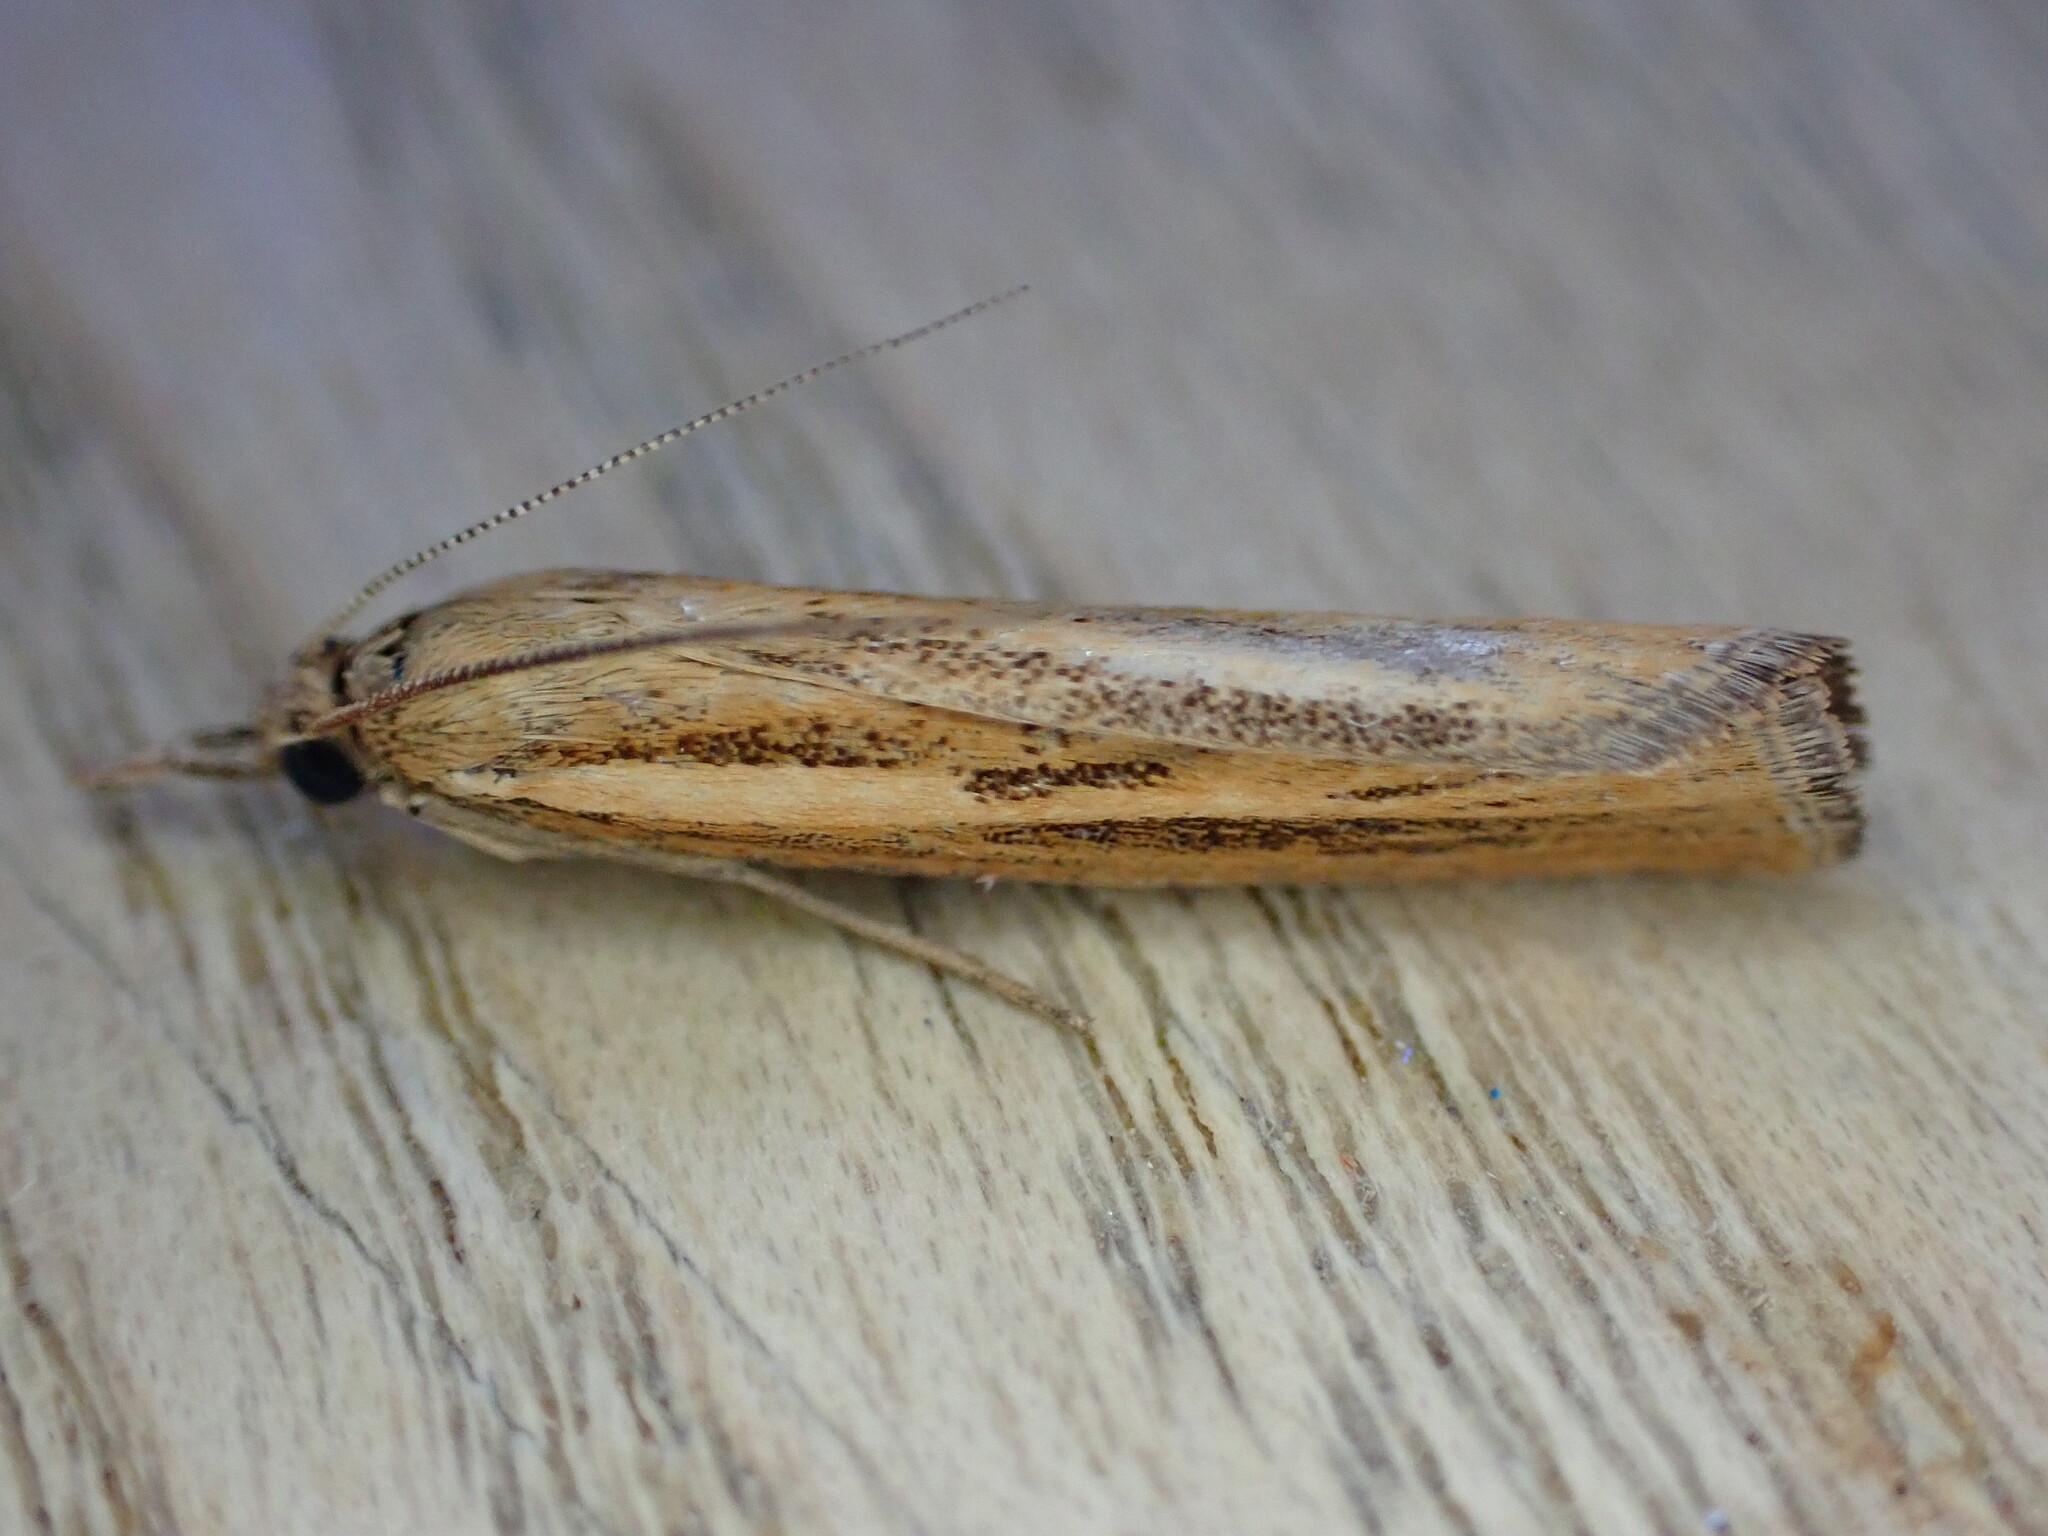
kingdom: Animalia
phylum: Arthropoda
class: Insecta
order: Lepidoptera
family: Crambidae
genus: Agriphila
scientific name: Agriphila tristellus
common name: Common grass-veneer
